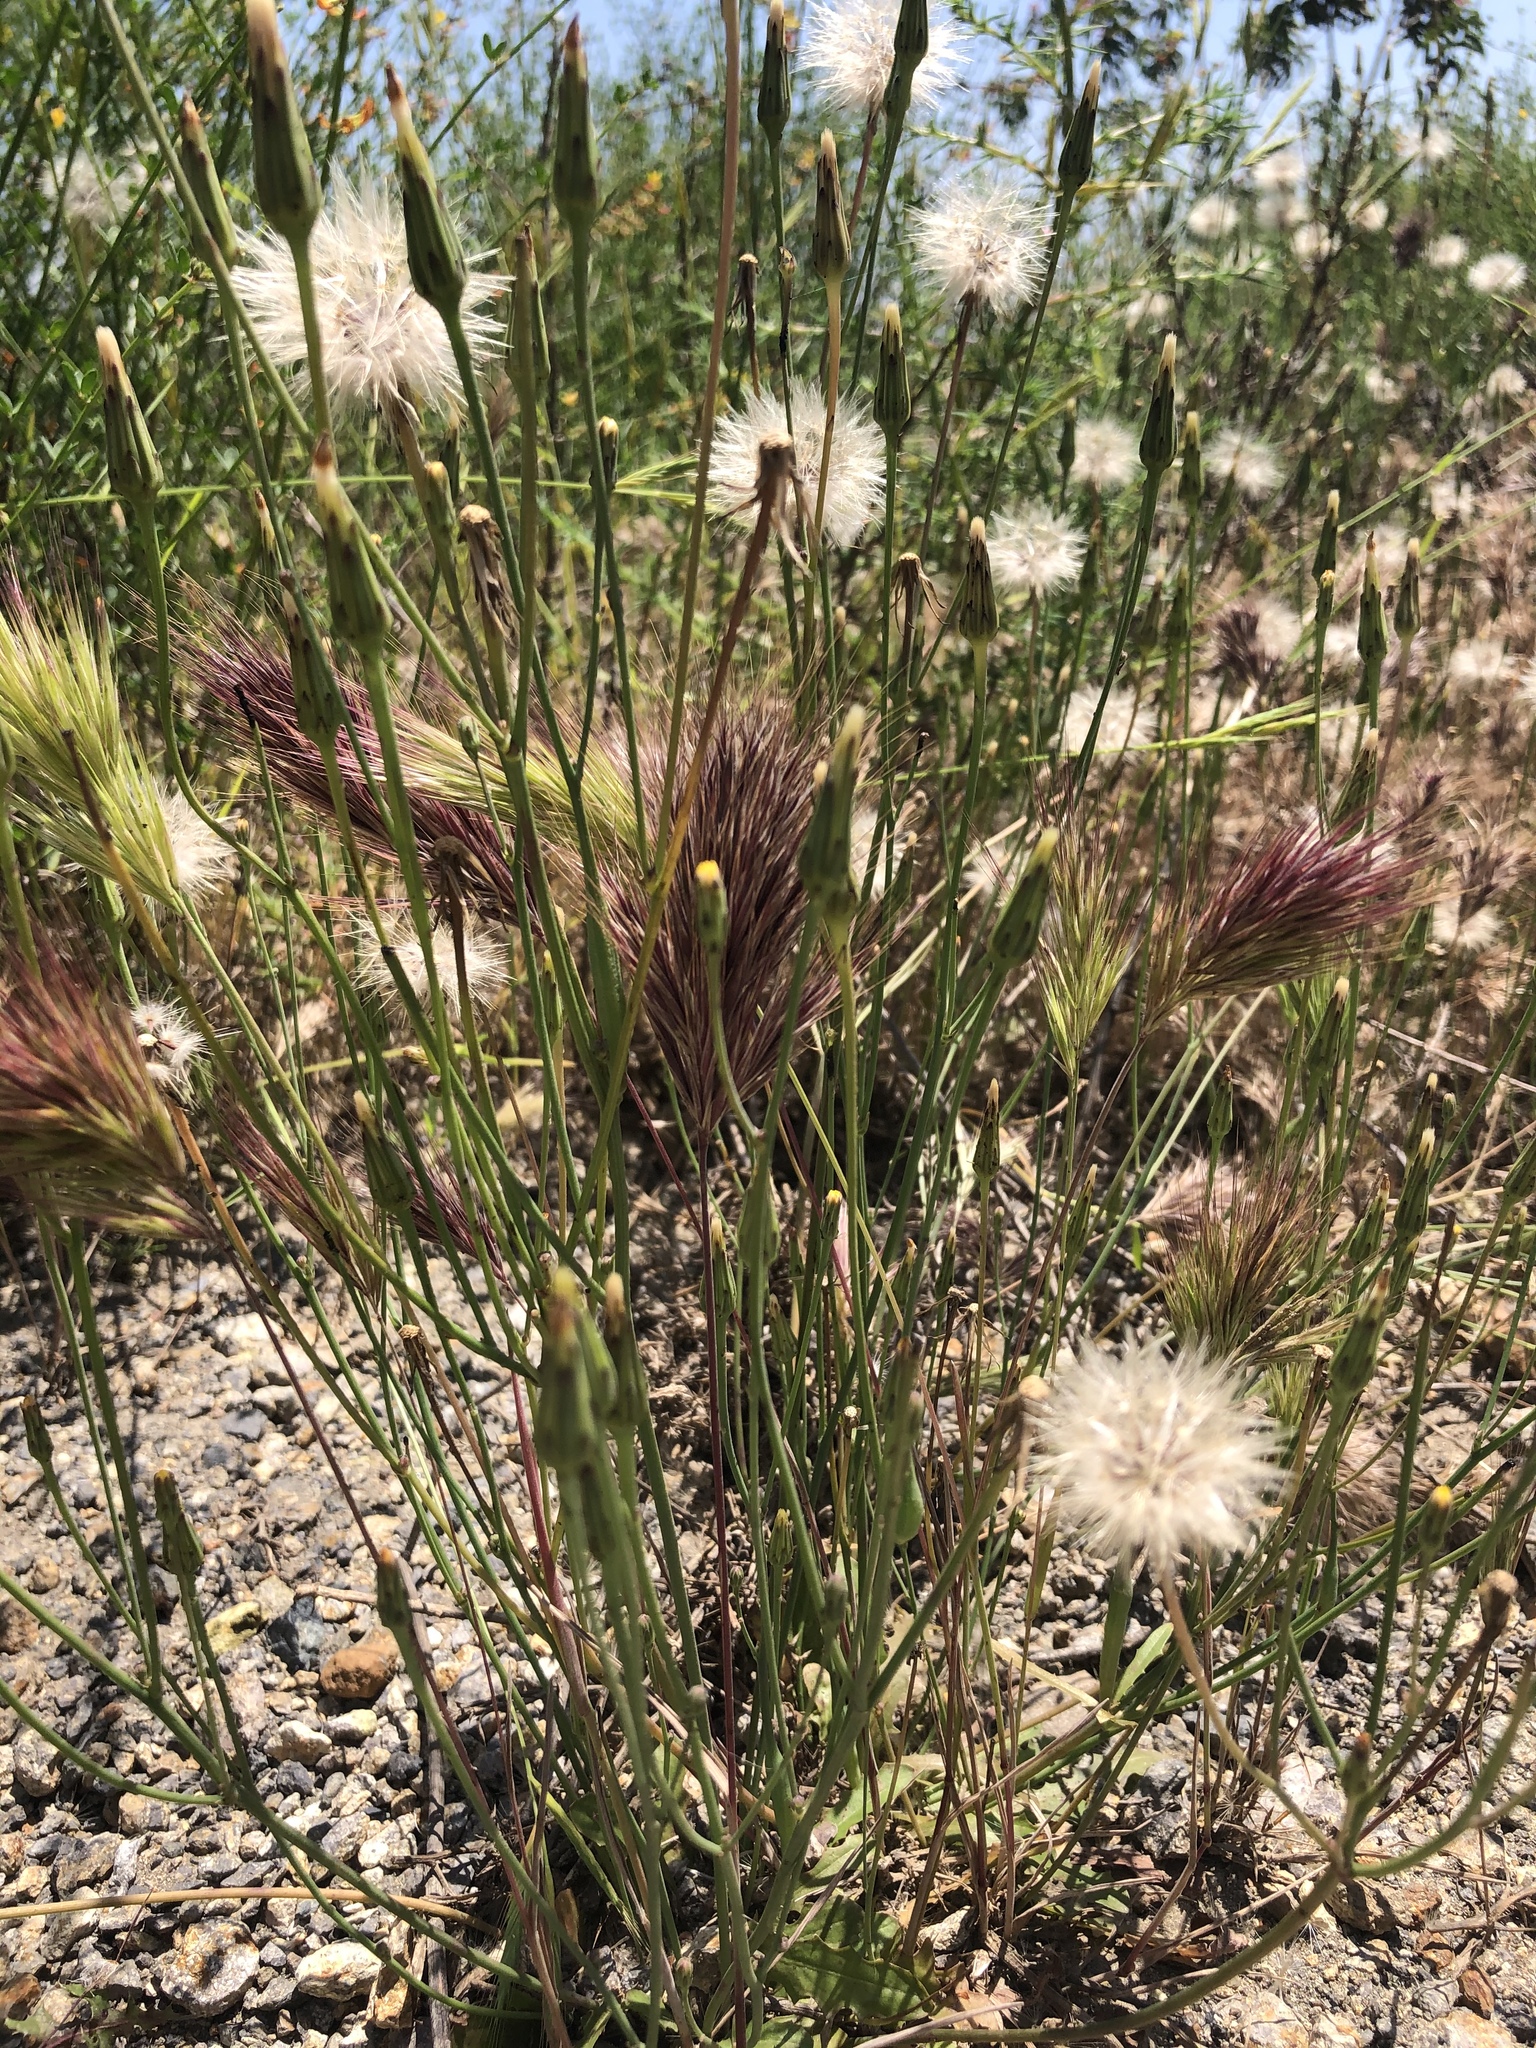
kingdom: Plantae
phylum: Tracheophyta
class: Liliopsida
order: Poales
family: Poaceae
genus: Bromus
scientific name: Bromus rubens
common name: Red brome
